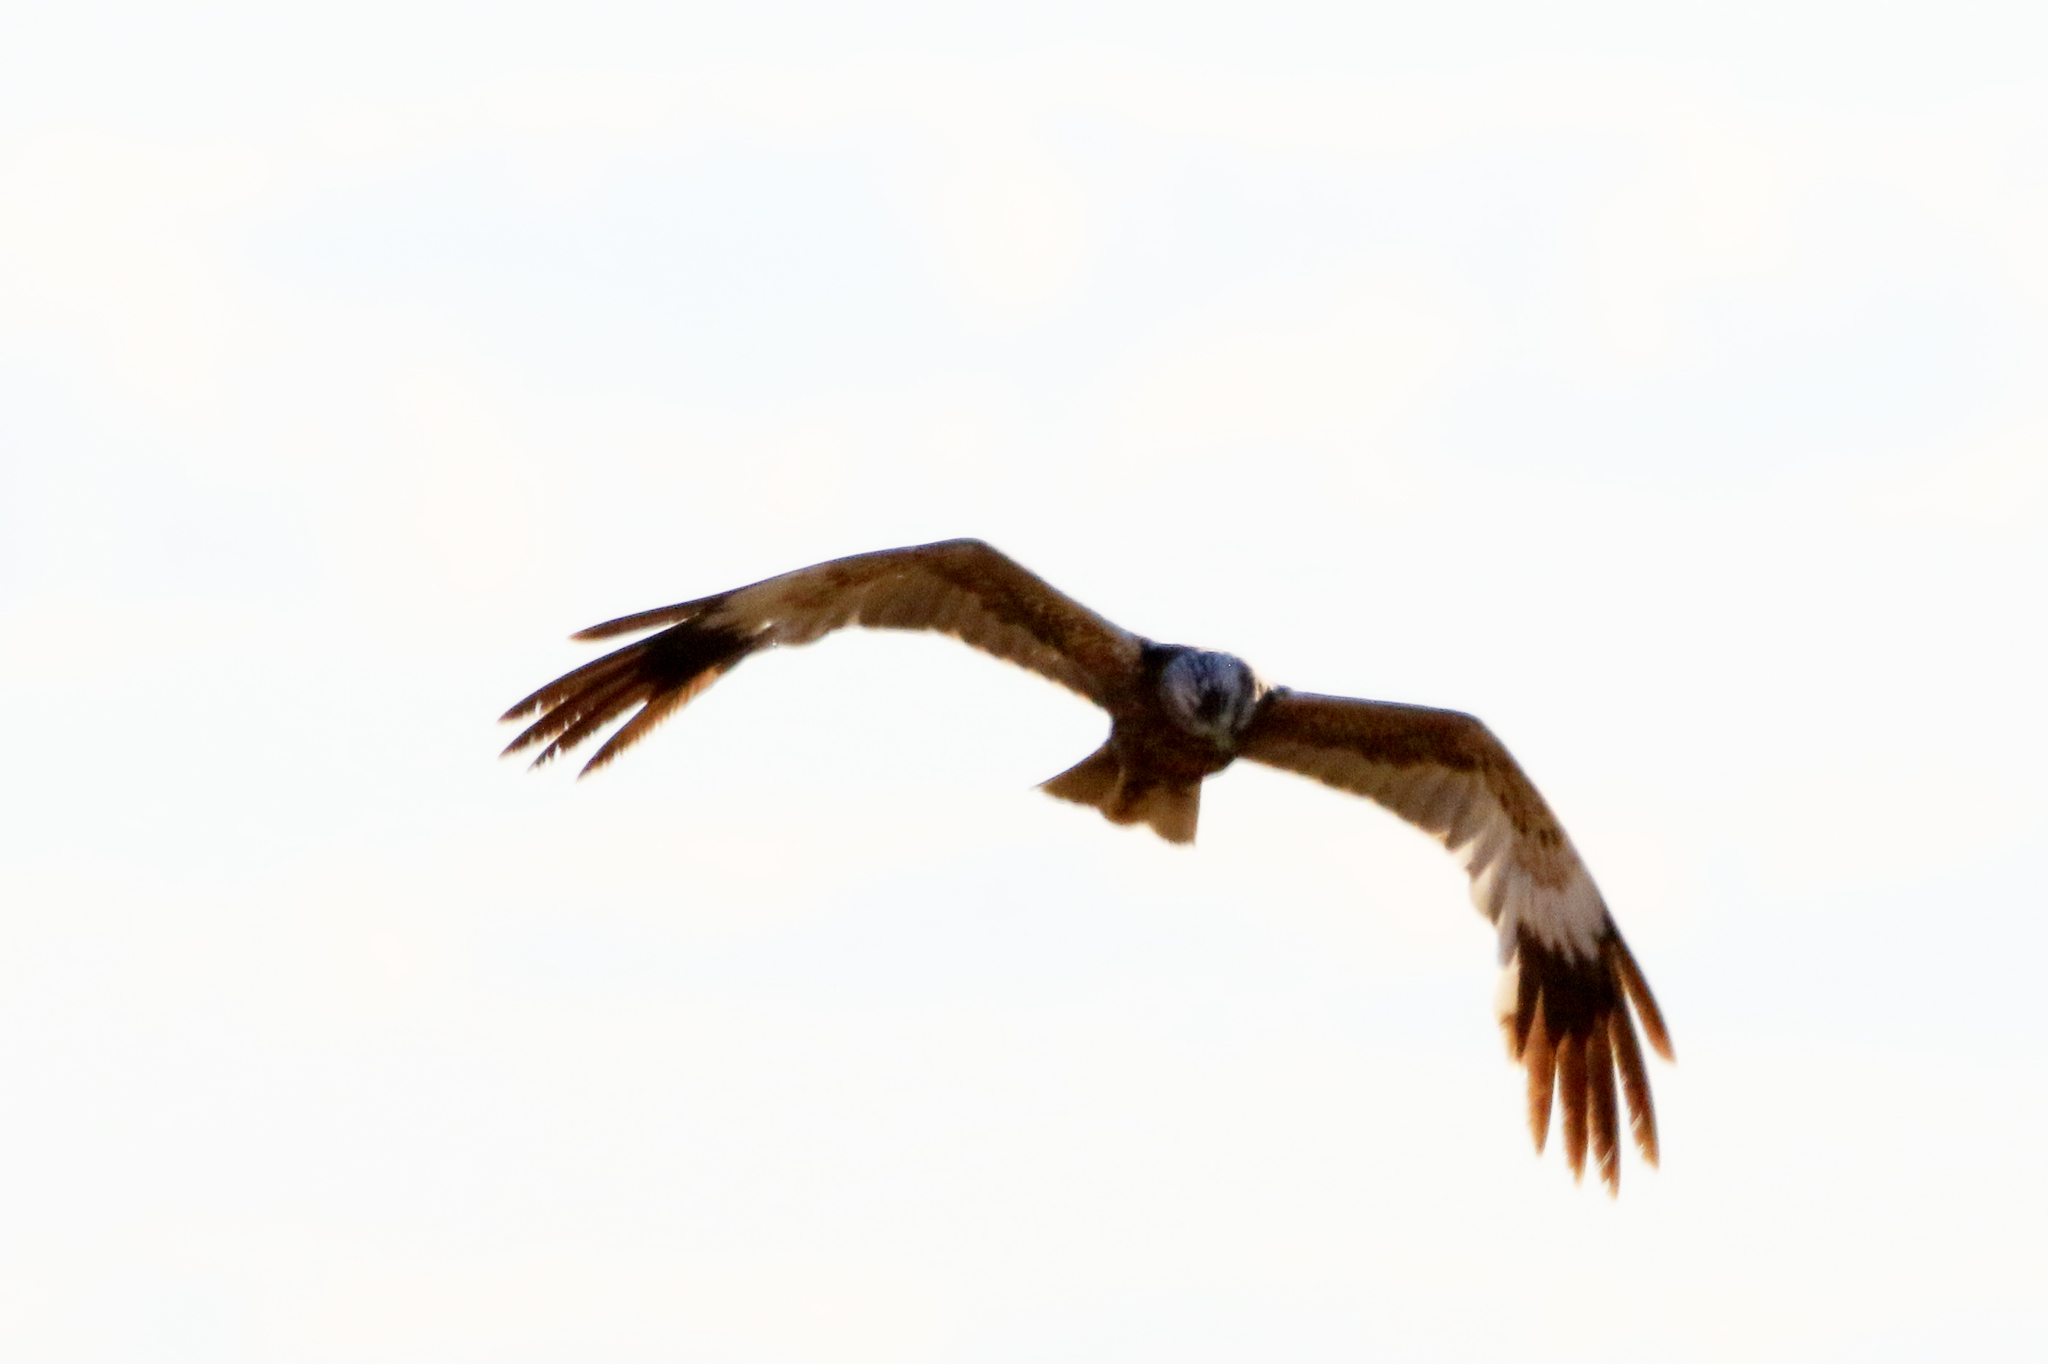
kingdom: Animalia
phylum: Chordata
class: Aves
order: Accipitriformes
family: Accipitridae
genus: Circus
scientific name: Circus aeruginosus
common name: Western marsh harrier
